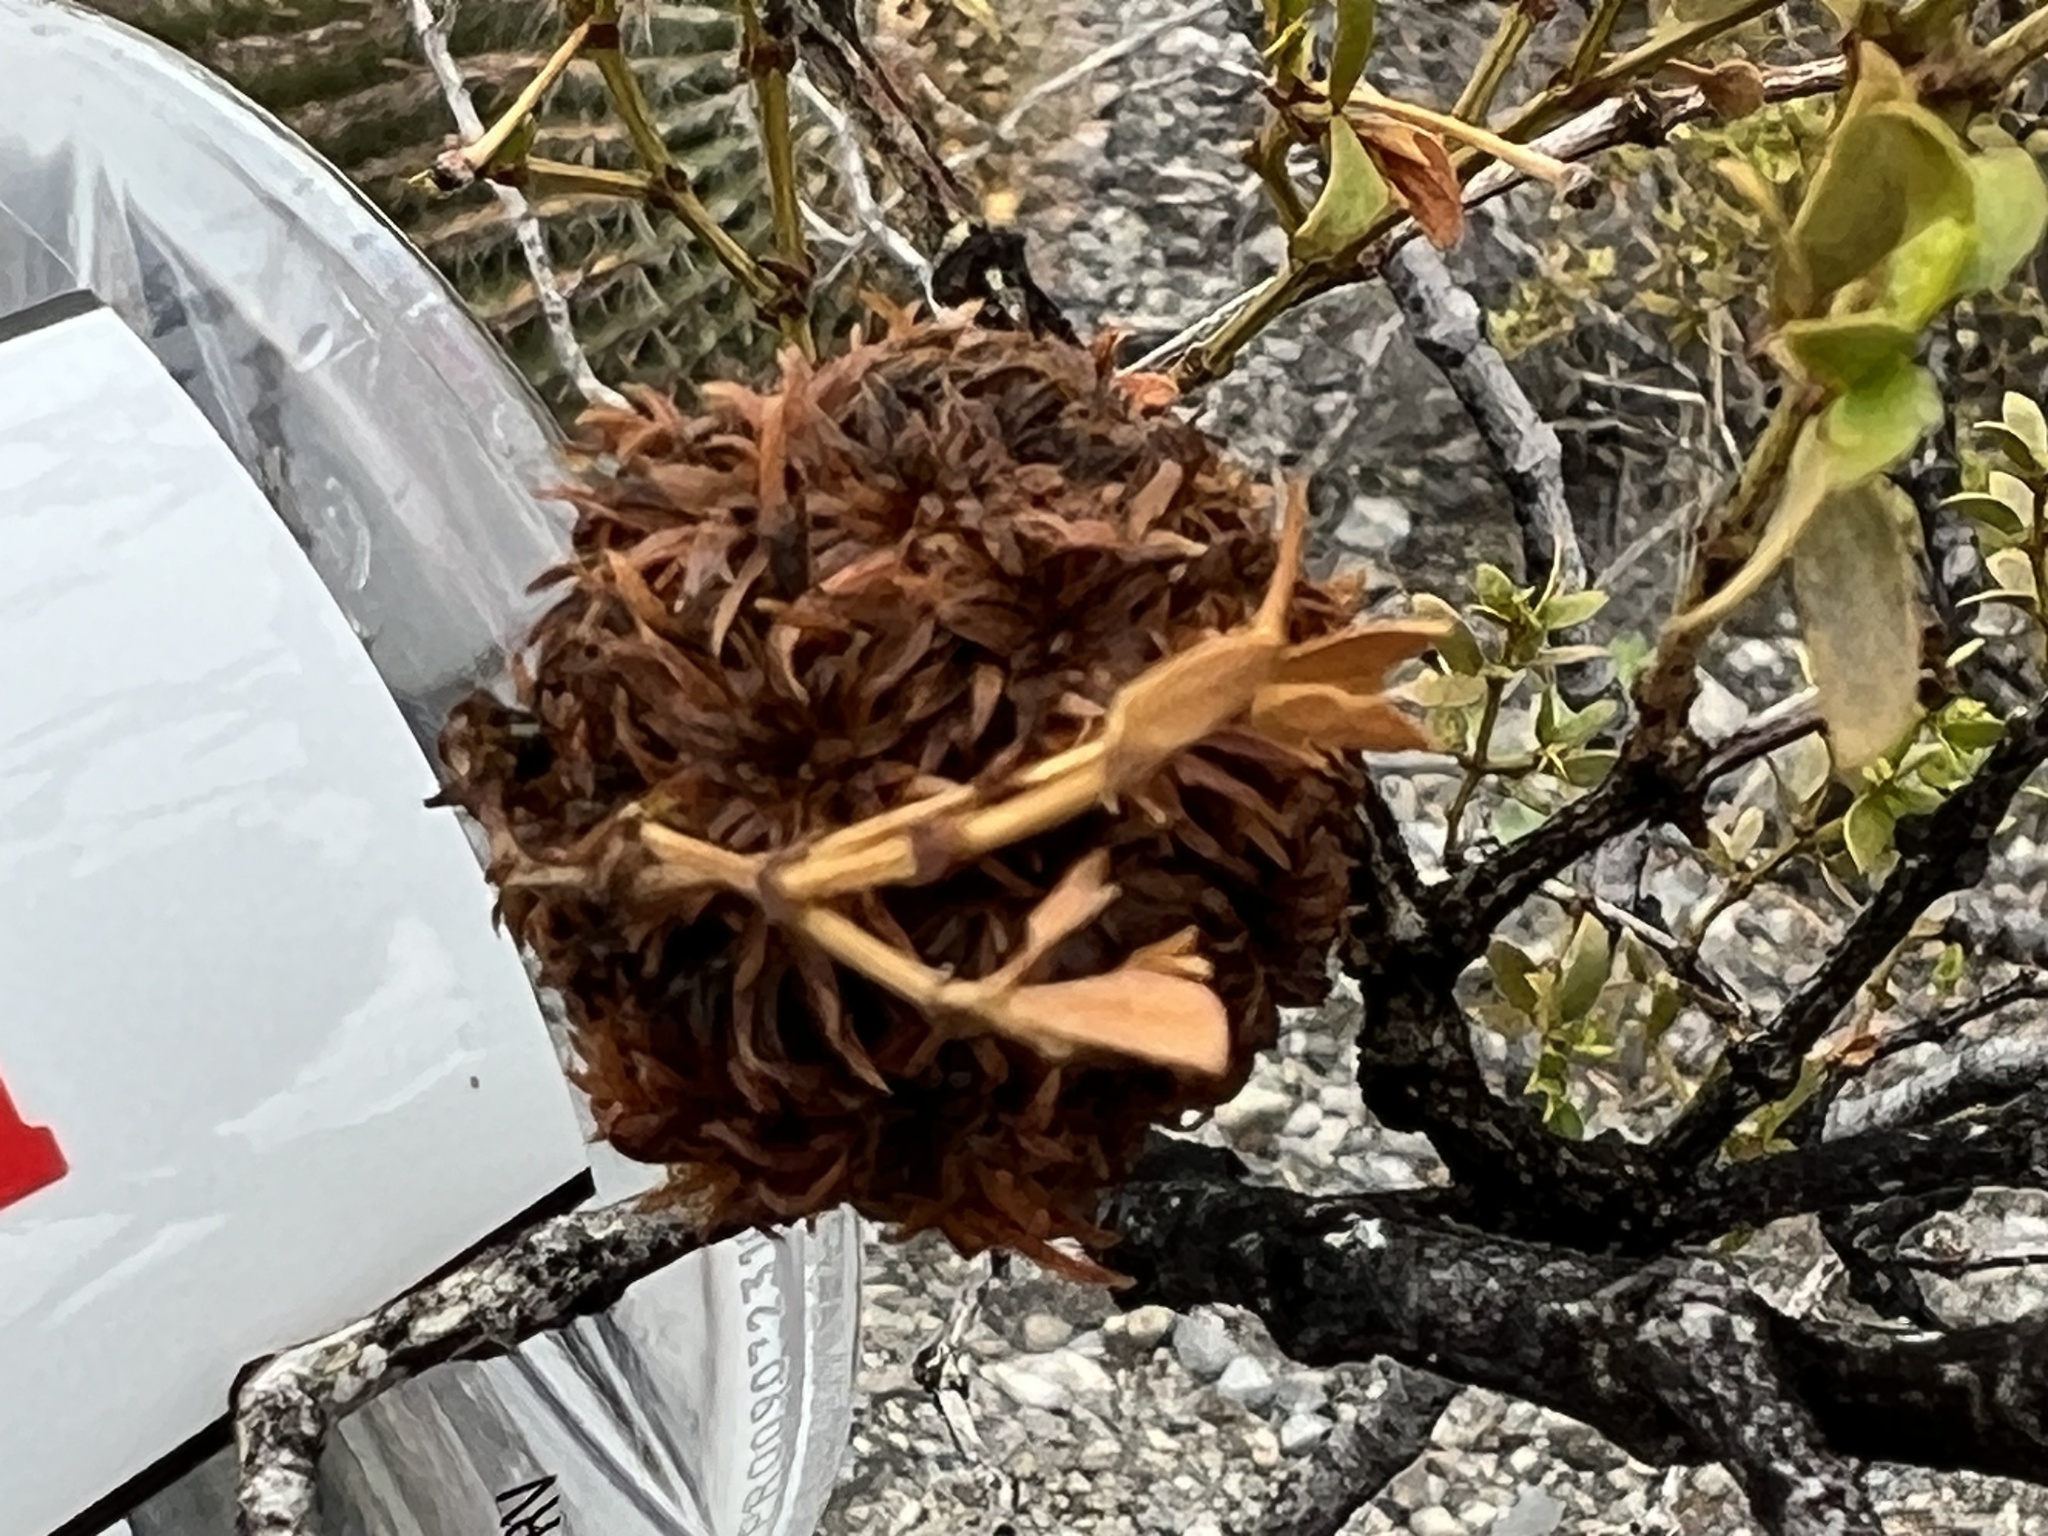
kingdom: Animalia
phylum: Arthropoda
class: Insecta
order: Diptera
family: Cecidomyiidae
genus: Asphondylia
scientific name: Asphondylia auripila
